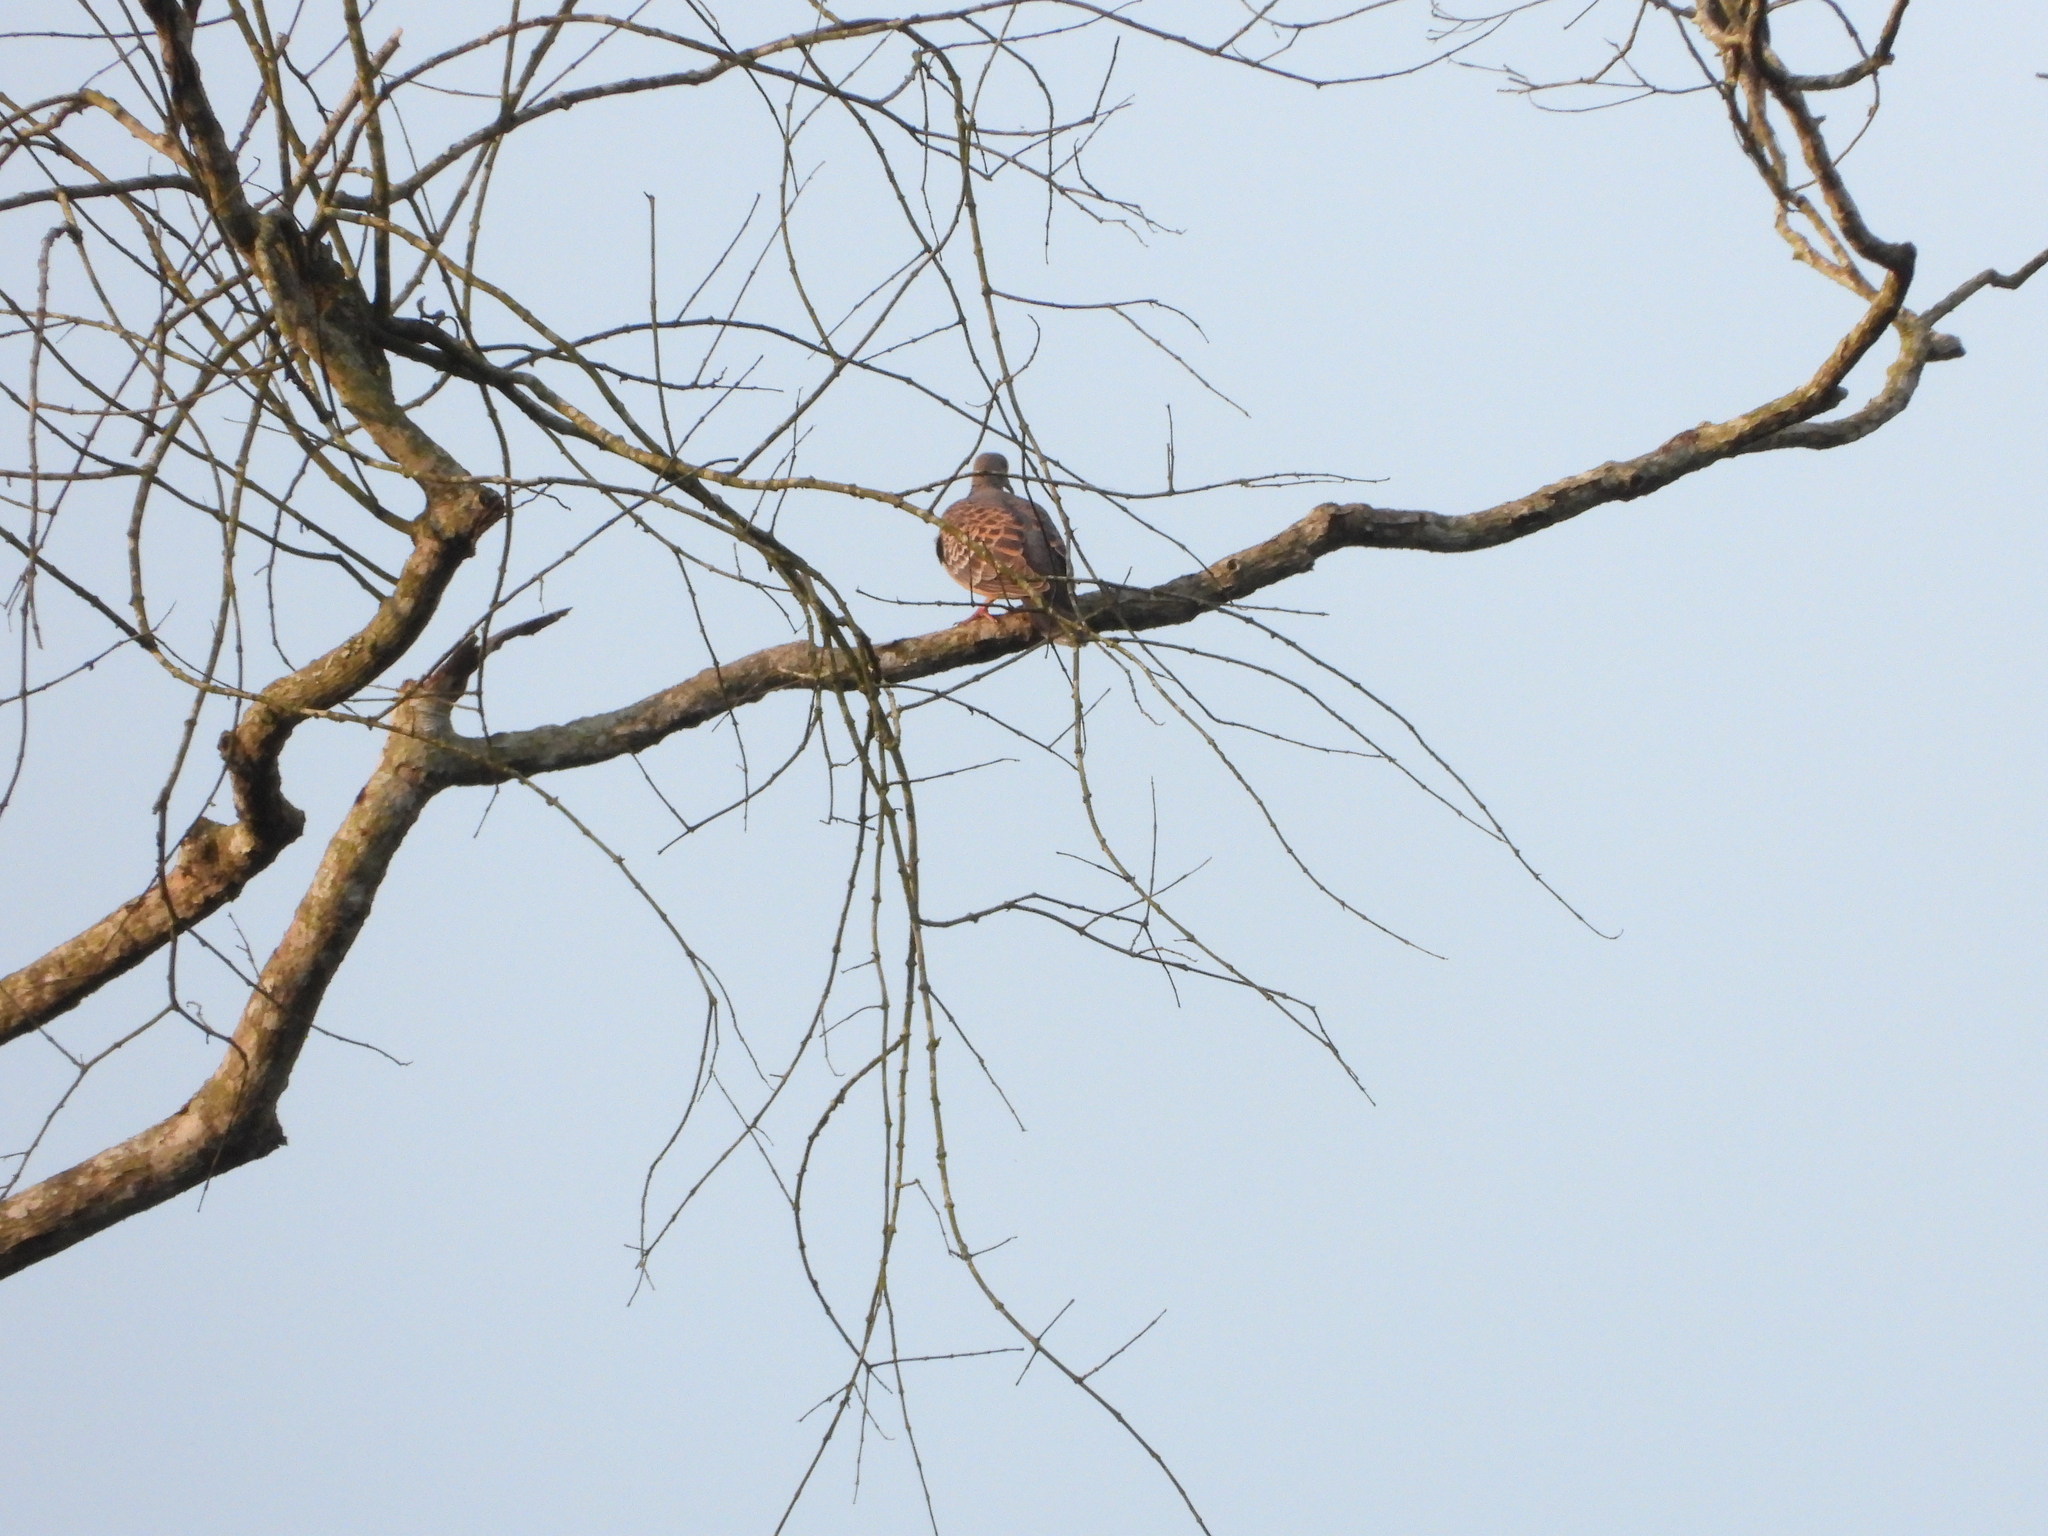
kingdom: Animalia
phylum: Chordata
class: Aves
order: Columbiformes
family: Columbidae
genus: Streptopelia
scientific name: Streptopelia orientalis
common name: Oriental turtle dove
